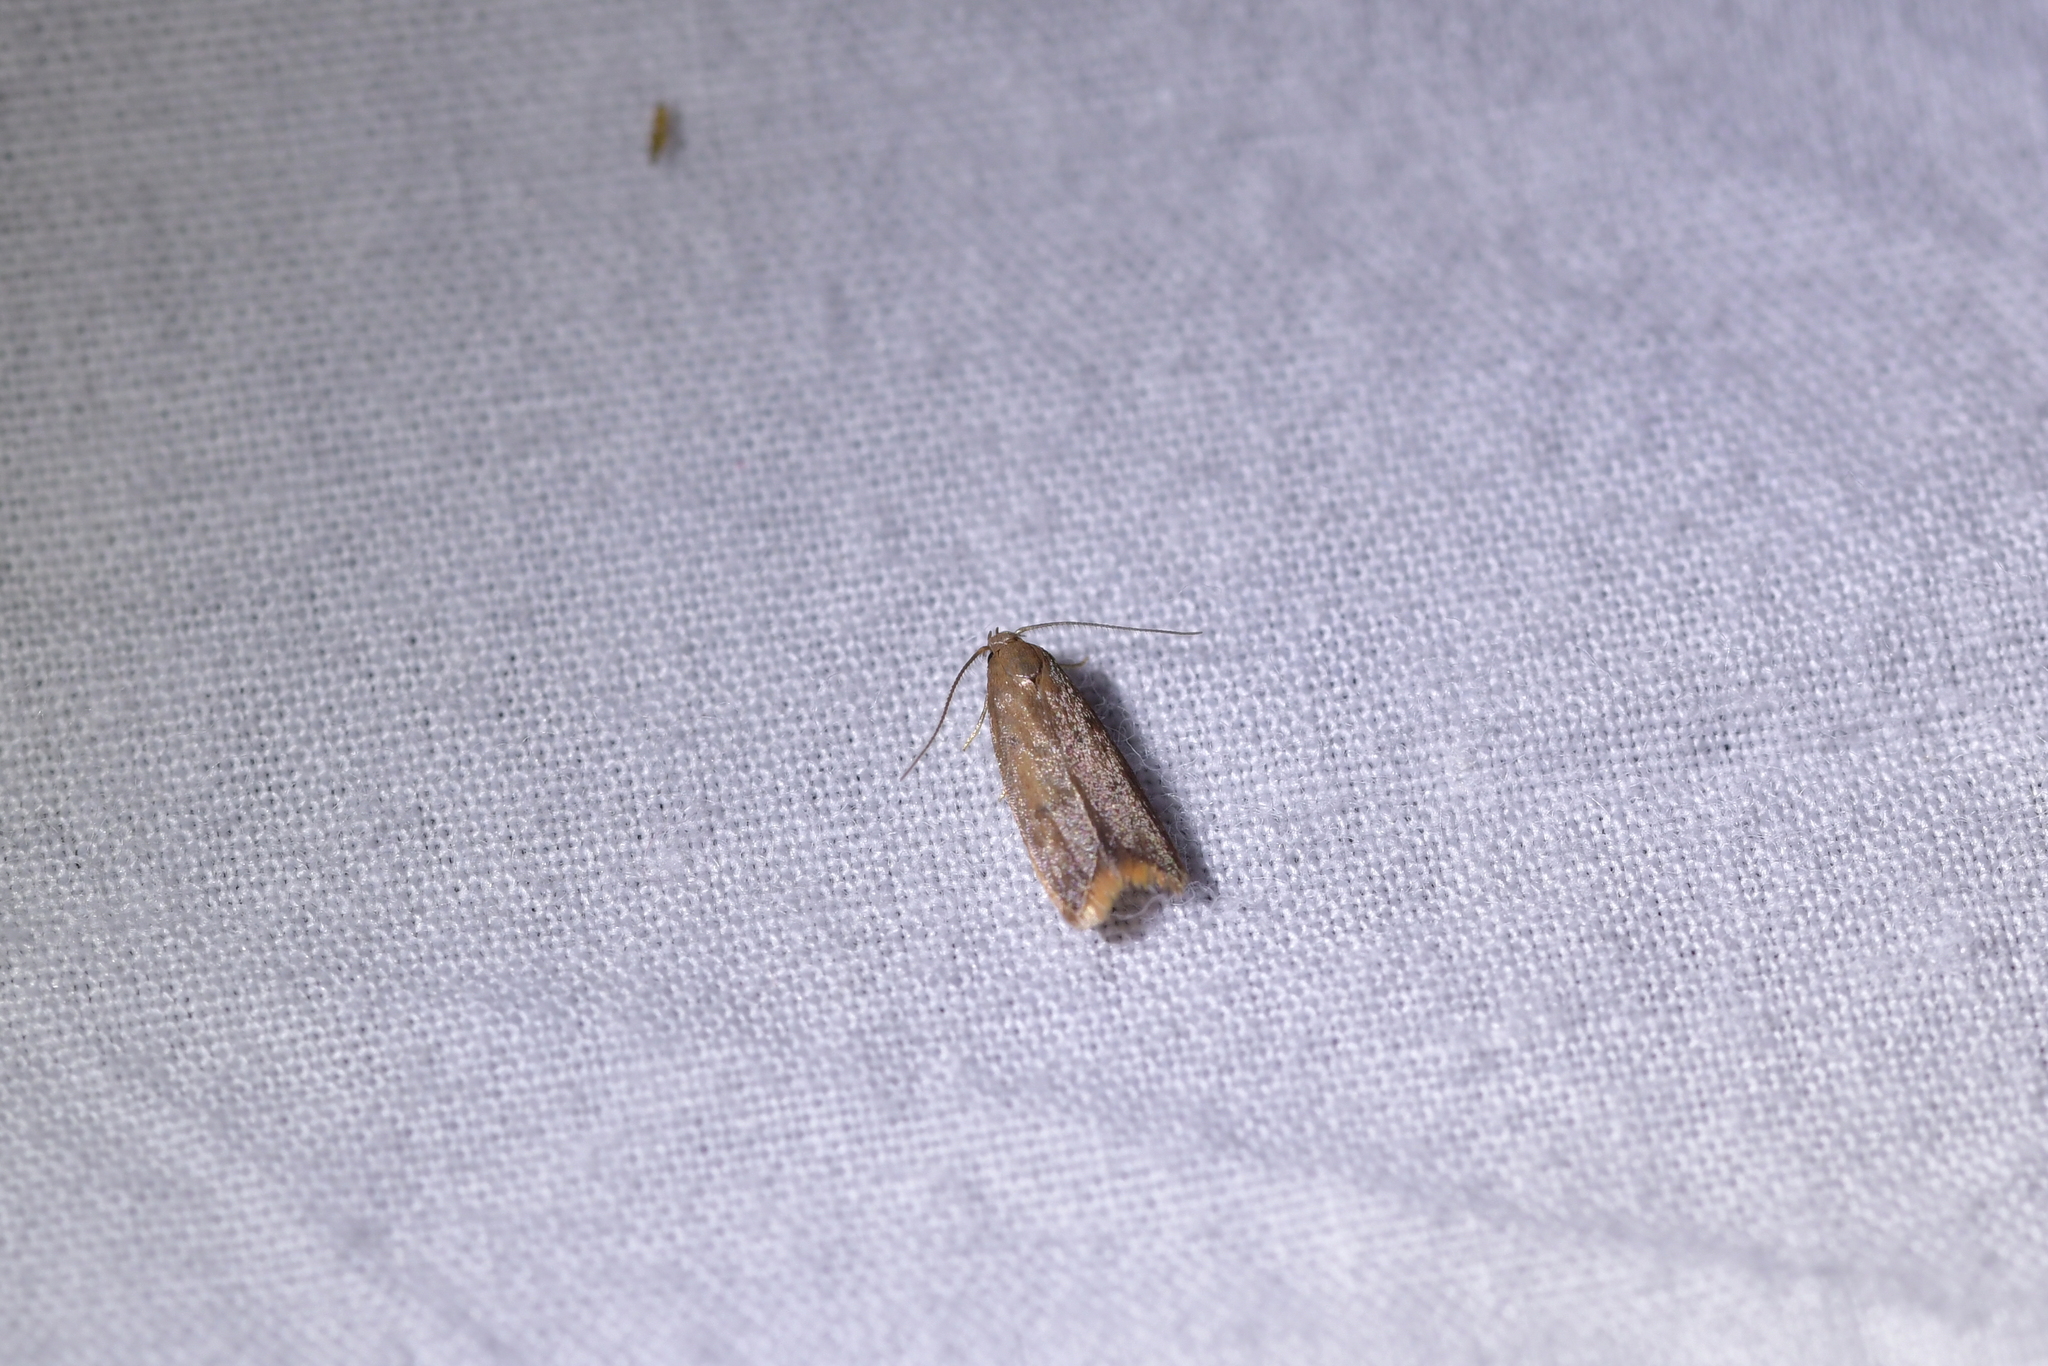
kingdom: Animalia
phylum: Arthropoda
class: Insecta
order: Lepidoptera
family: Oecophoridae
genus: Tachystola
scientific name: Tachystola acroxantha
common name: Ruddy streak
